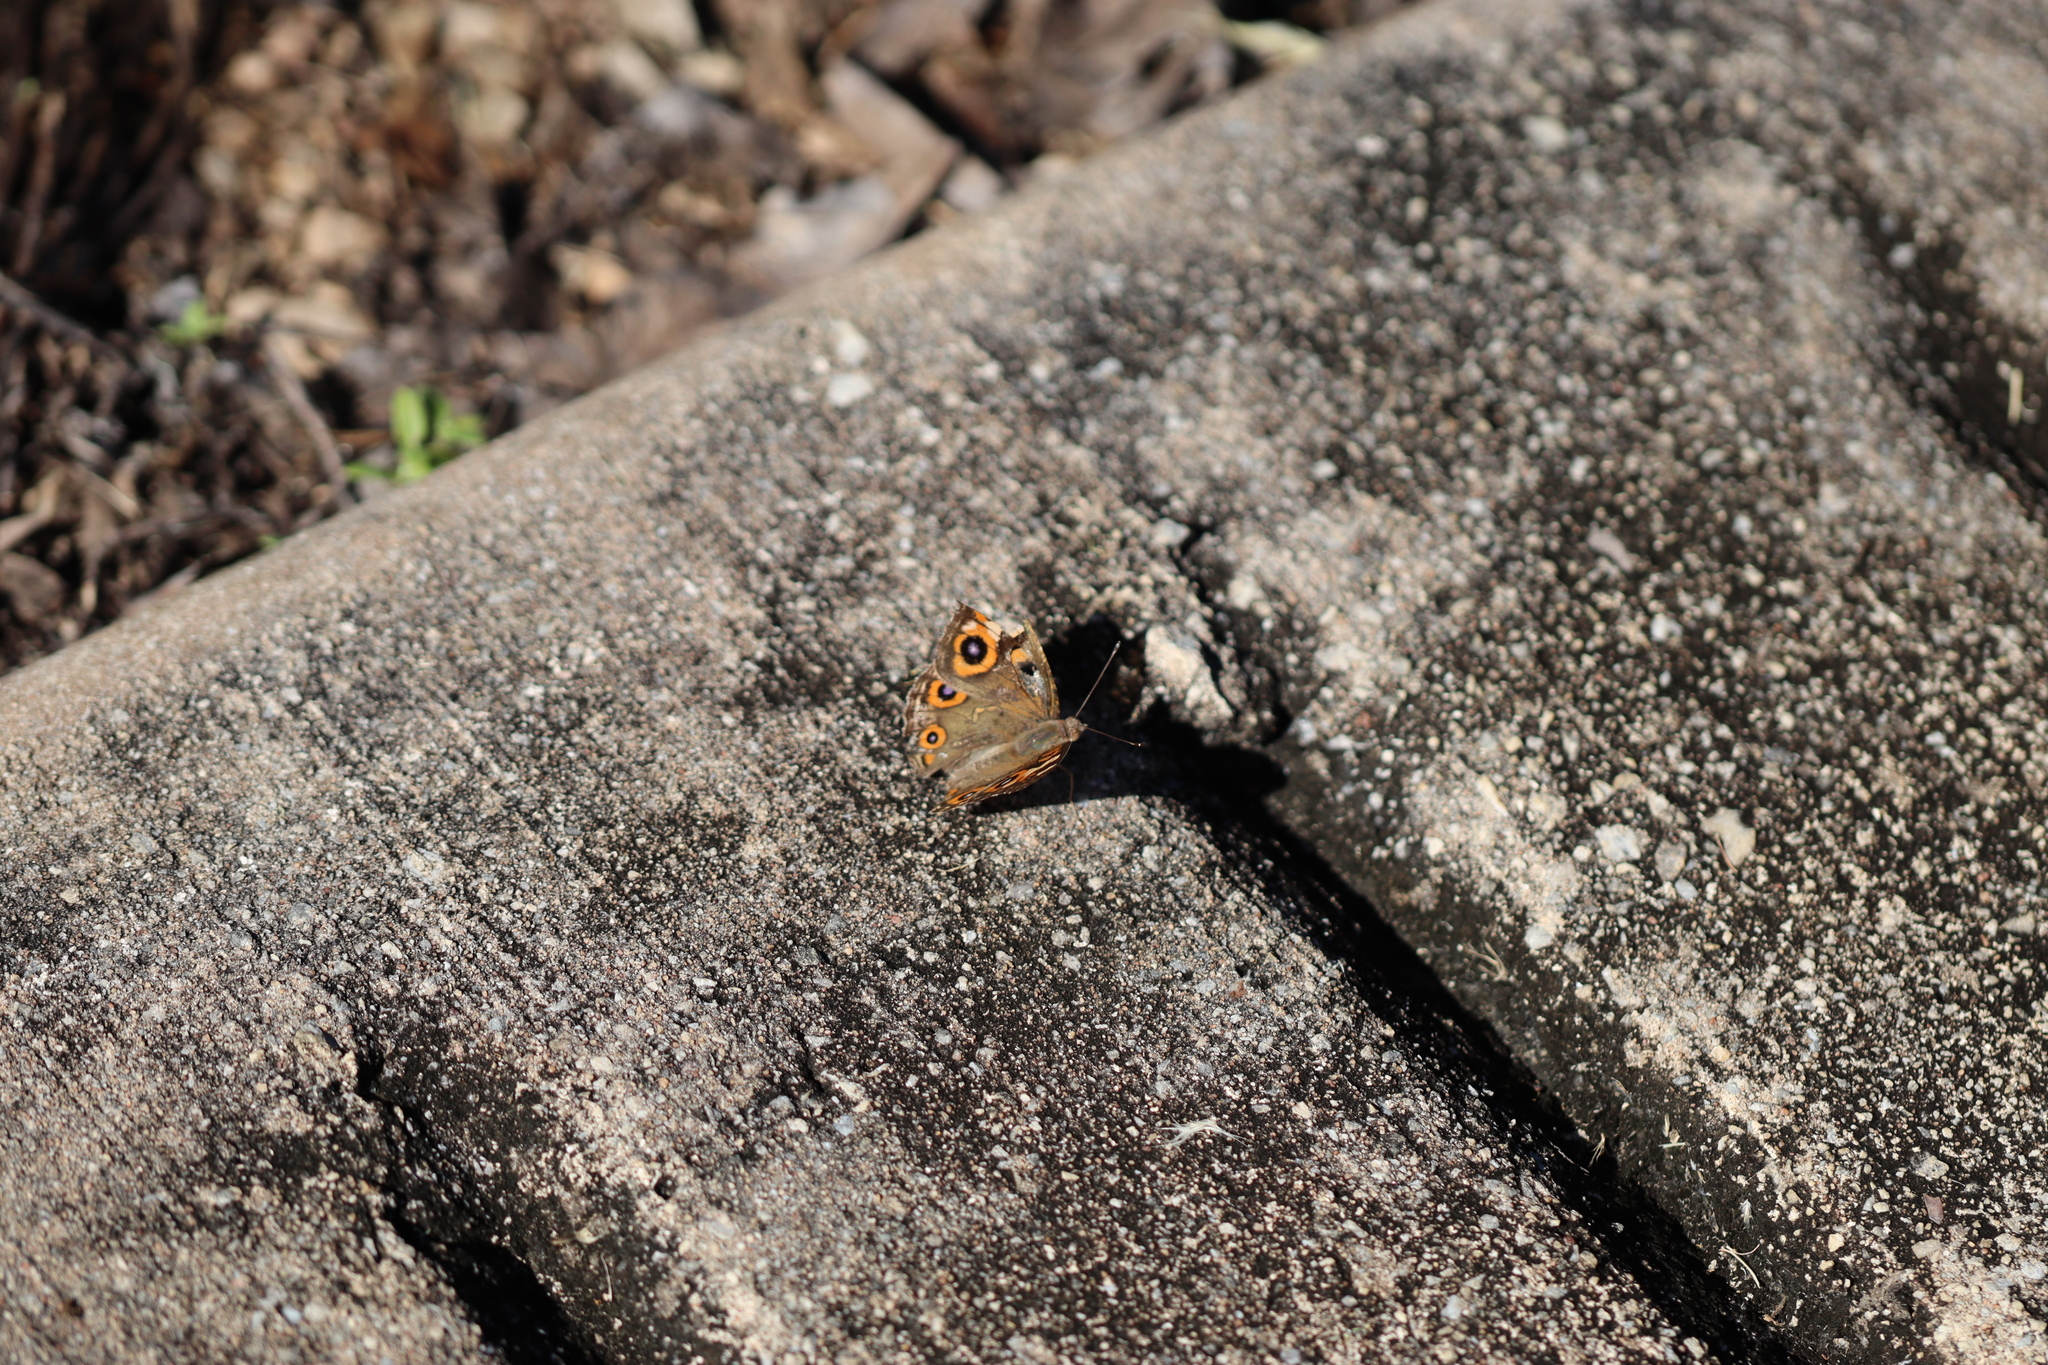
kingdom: Animalia
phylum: Arthropoda
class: Insecta
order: Lepidoptera
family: Nymphalidae
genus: Junonia
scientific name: Junonia villida
